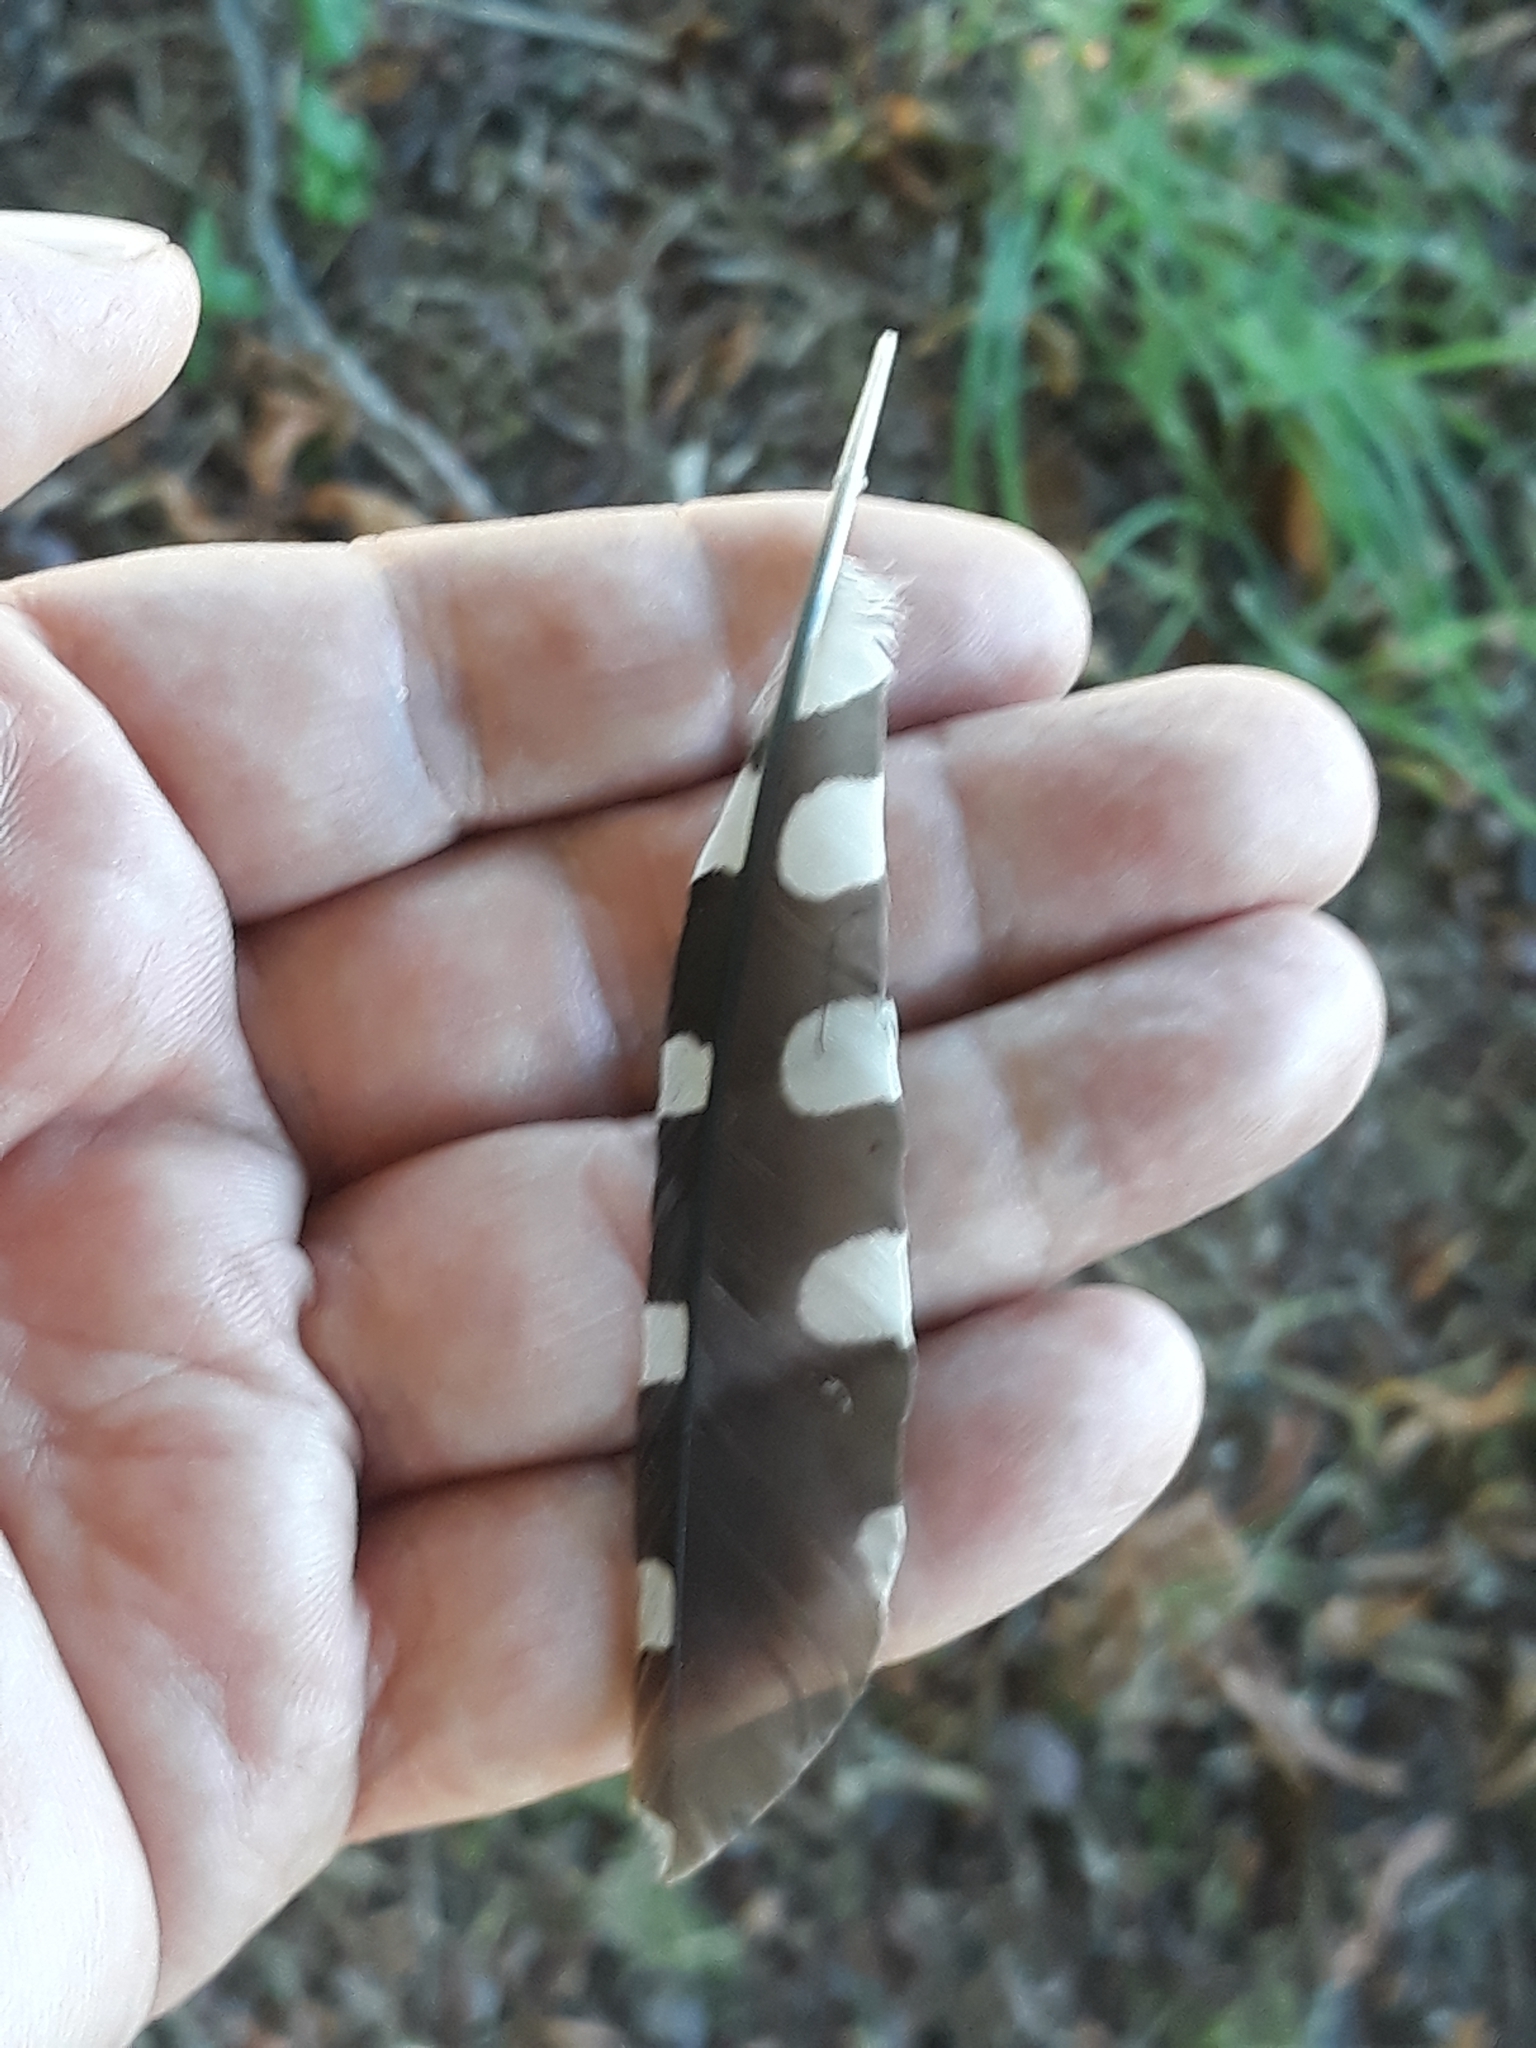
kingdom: Animalia
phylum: Chordata
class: Aves
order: Piciformes
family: Picidae
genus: Dendrocopos
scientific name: Dendrocopos major
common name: Great spotted woodpecker
